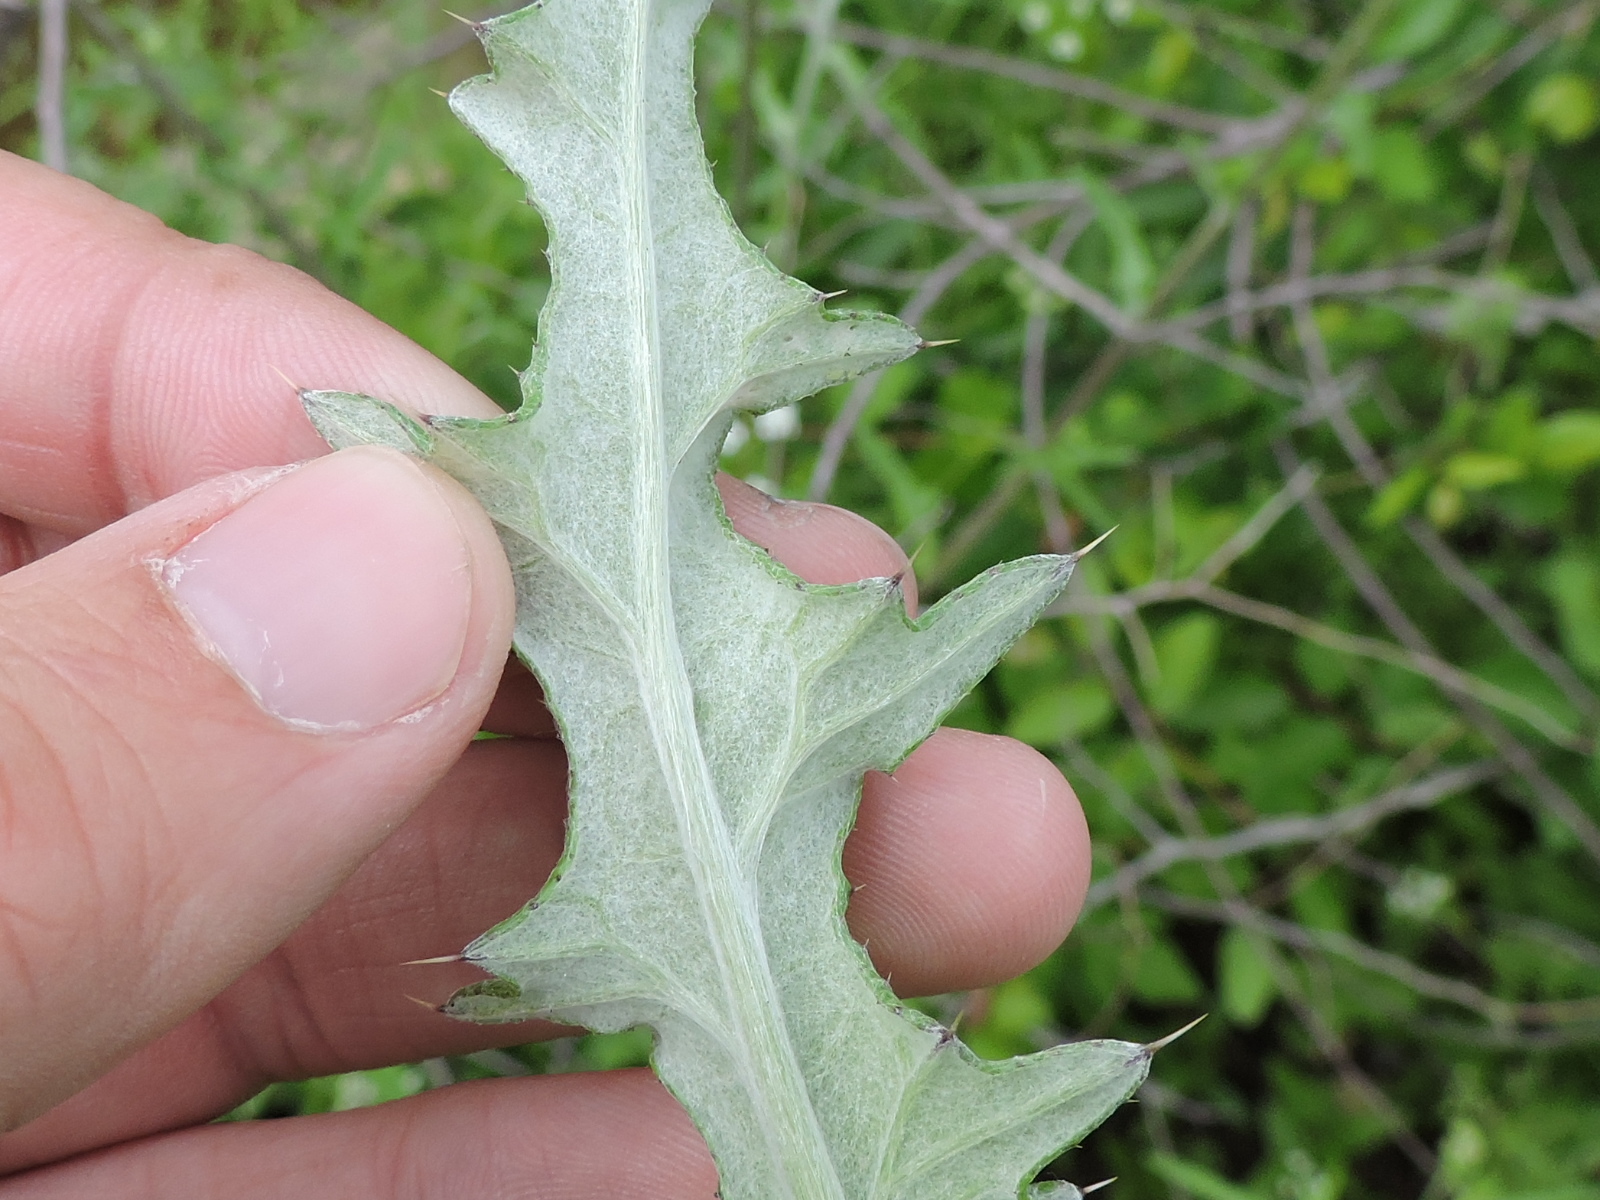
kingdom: Plantae
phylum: Tracheophyta
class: Magnoliopsida
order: Asterales
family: Asteraceae
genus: Cirsium
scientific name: Cirsium texanum
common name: Texas purple thistle
